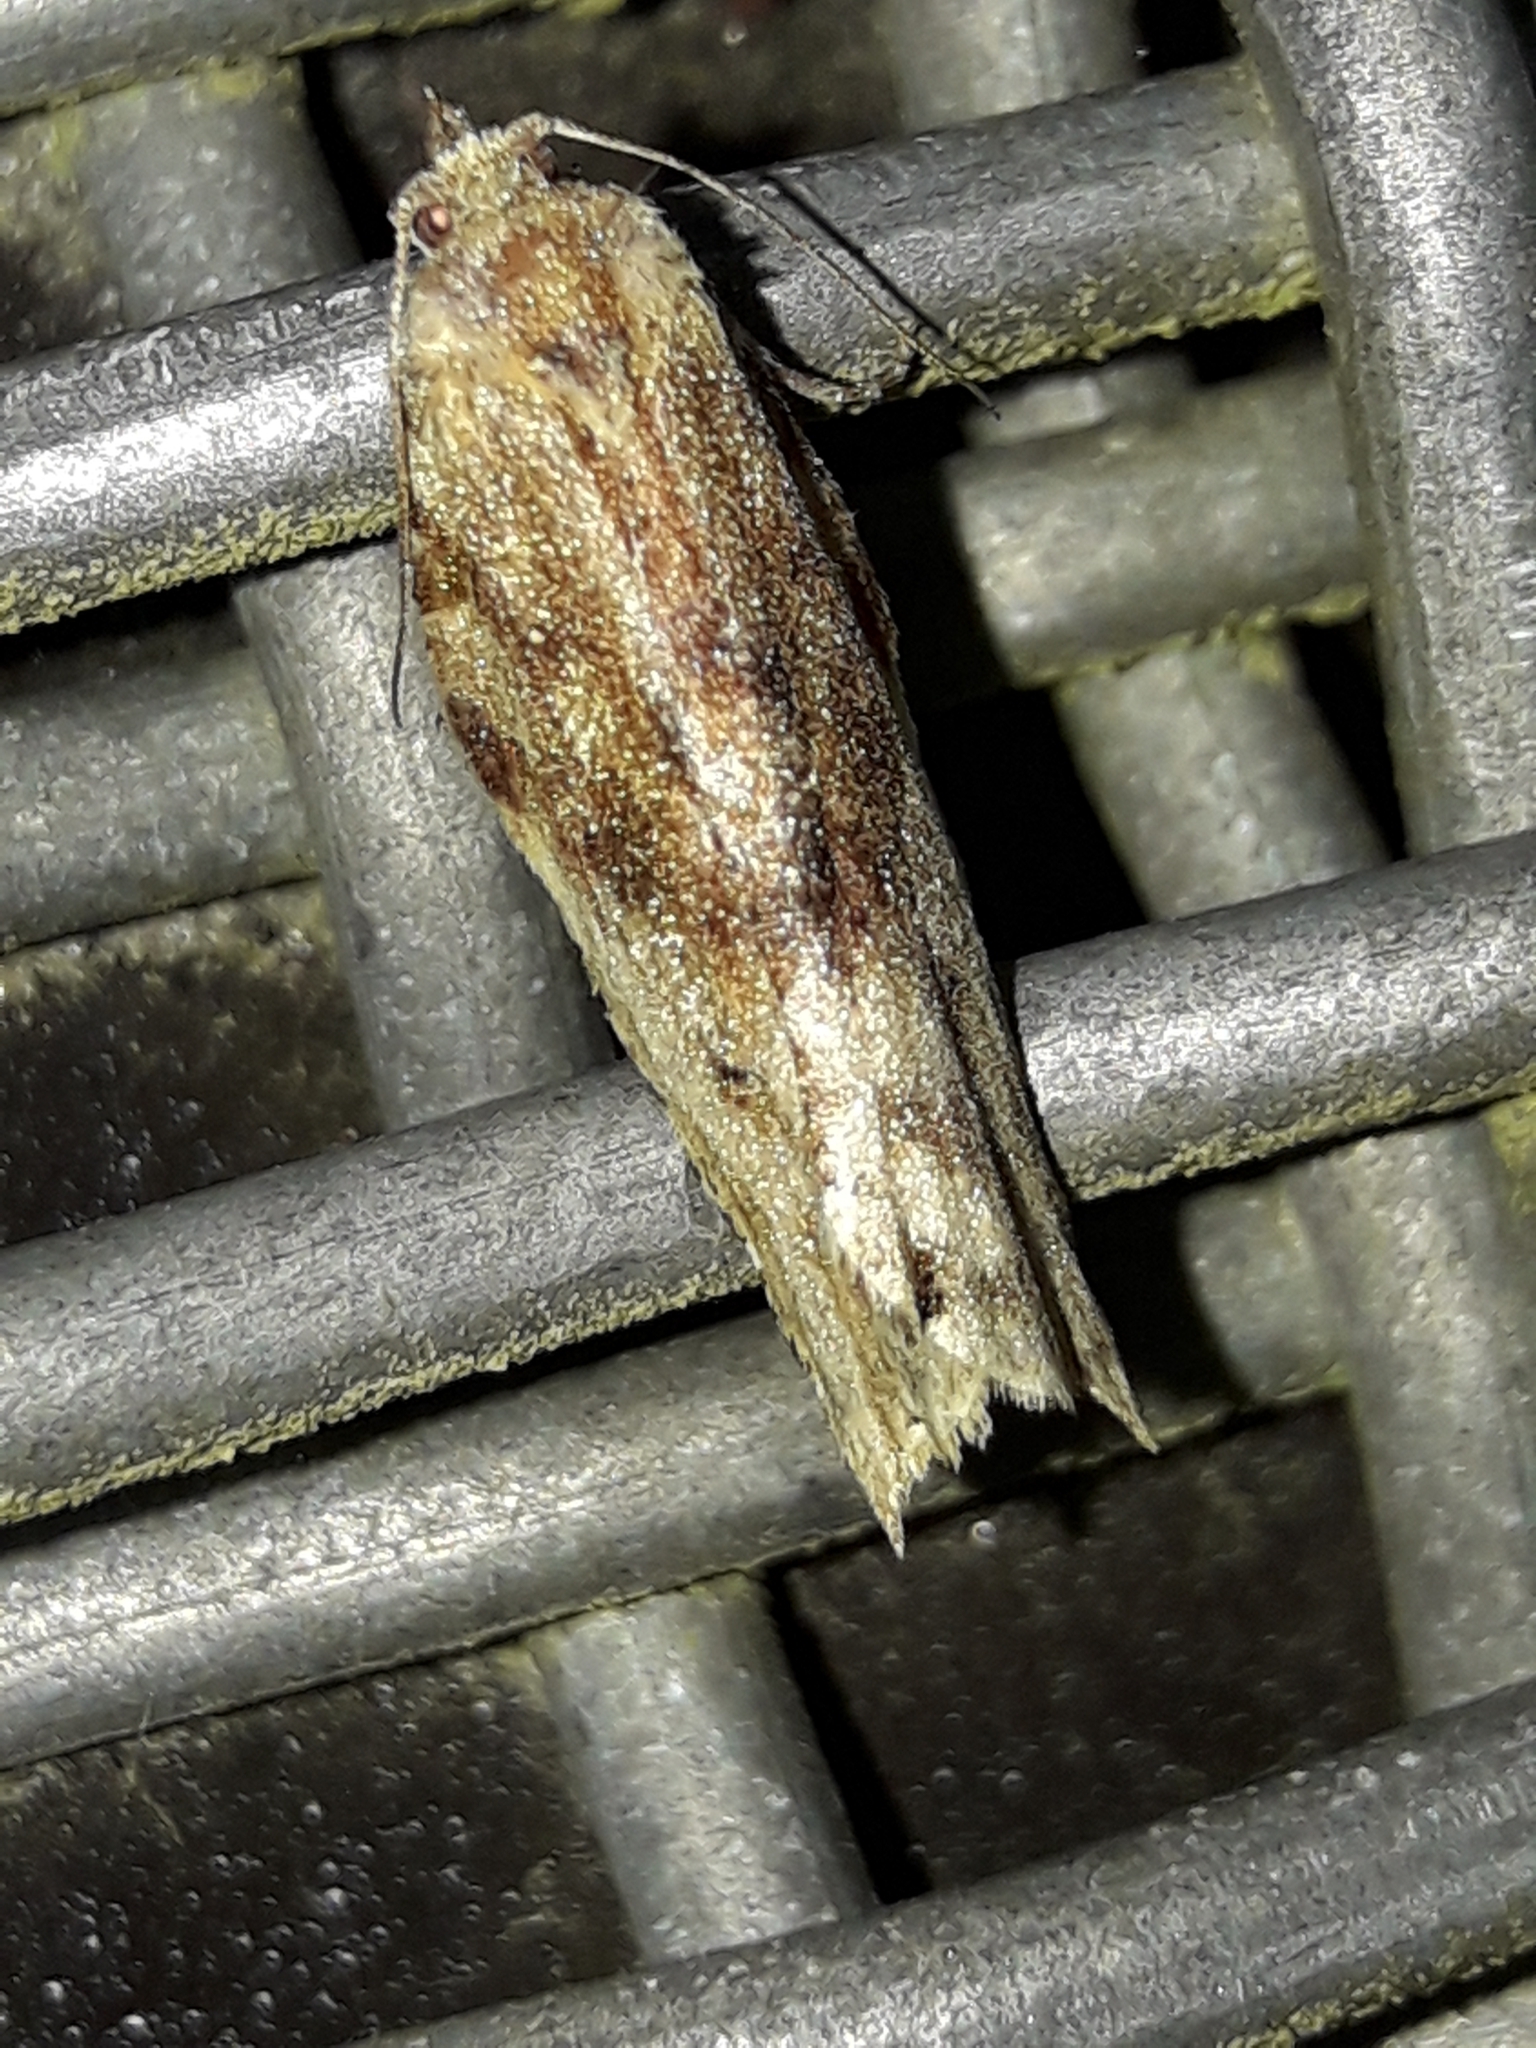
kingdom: Animalia
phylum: Arthropoda
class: Insecta
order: Lepidoptera
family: Tortricidae
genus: Epalxiphora
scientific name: Epalxiphora axenana
